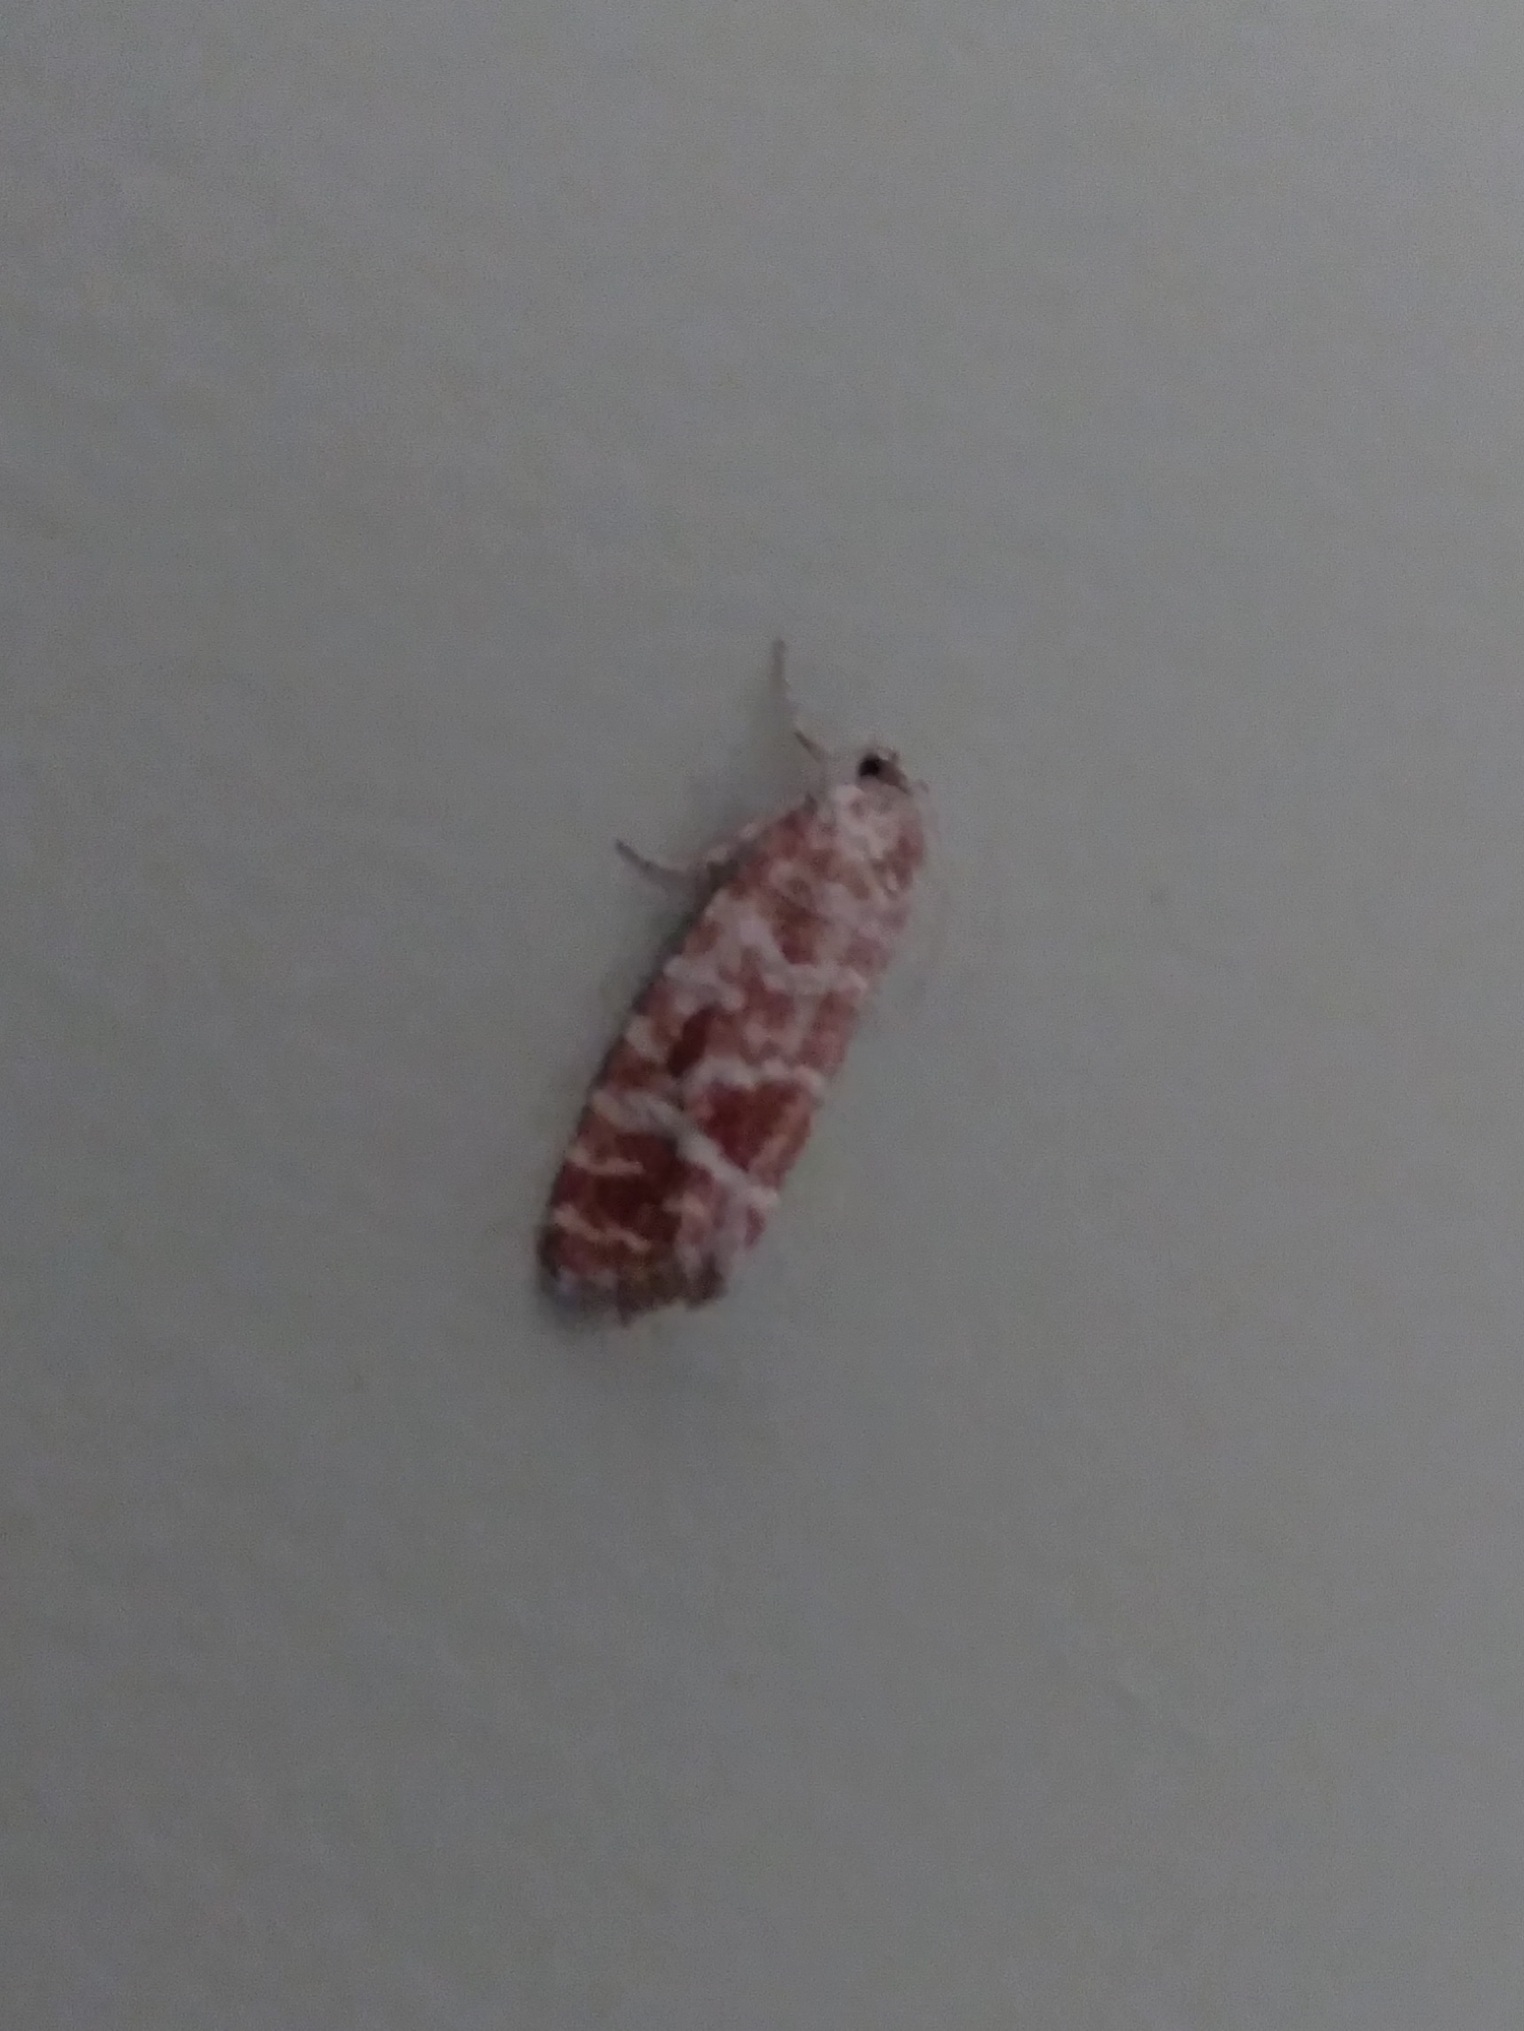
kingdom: Animalia
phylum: Arthropoda
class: Insecta
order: Lepidoptera
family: Tortricidae
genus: Rhyacionia
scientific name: Rhyacionia pinicolana
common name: Orange-spotted shoot
